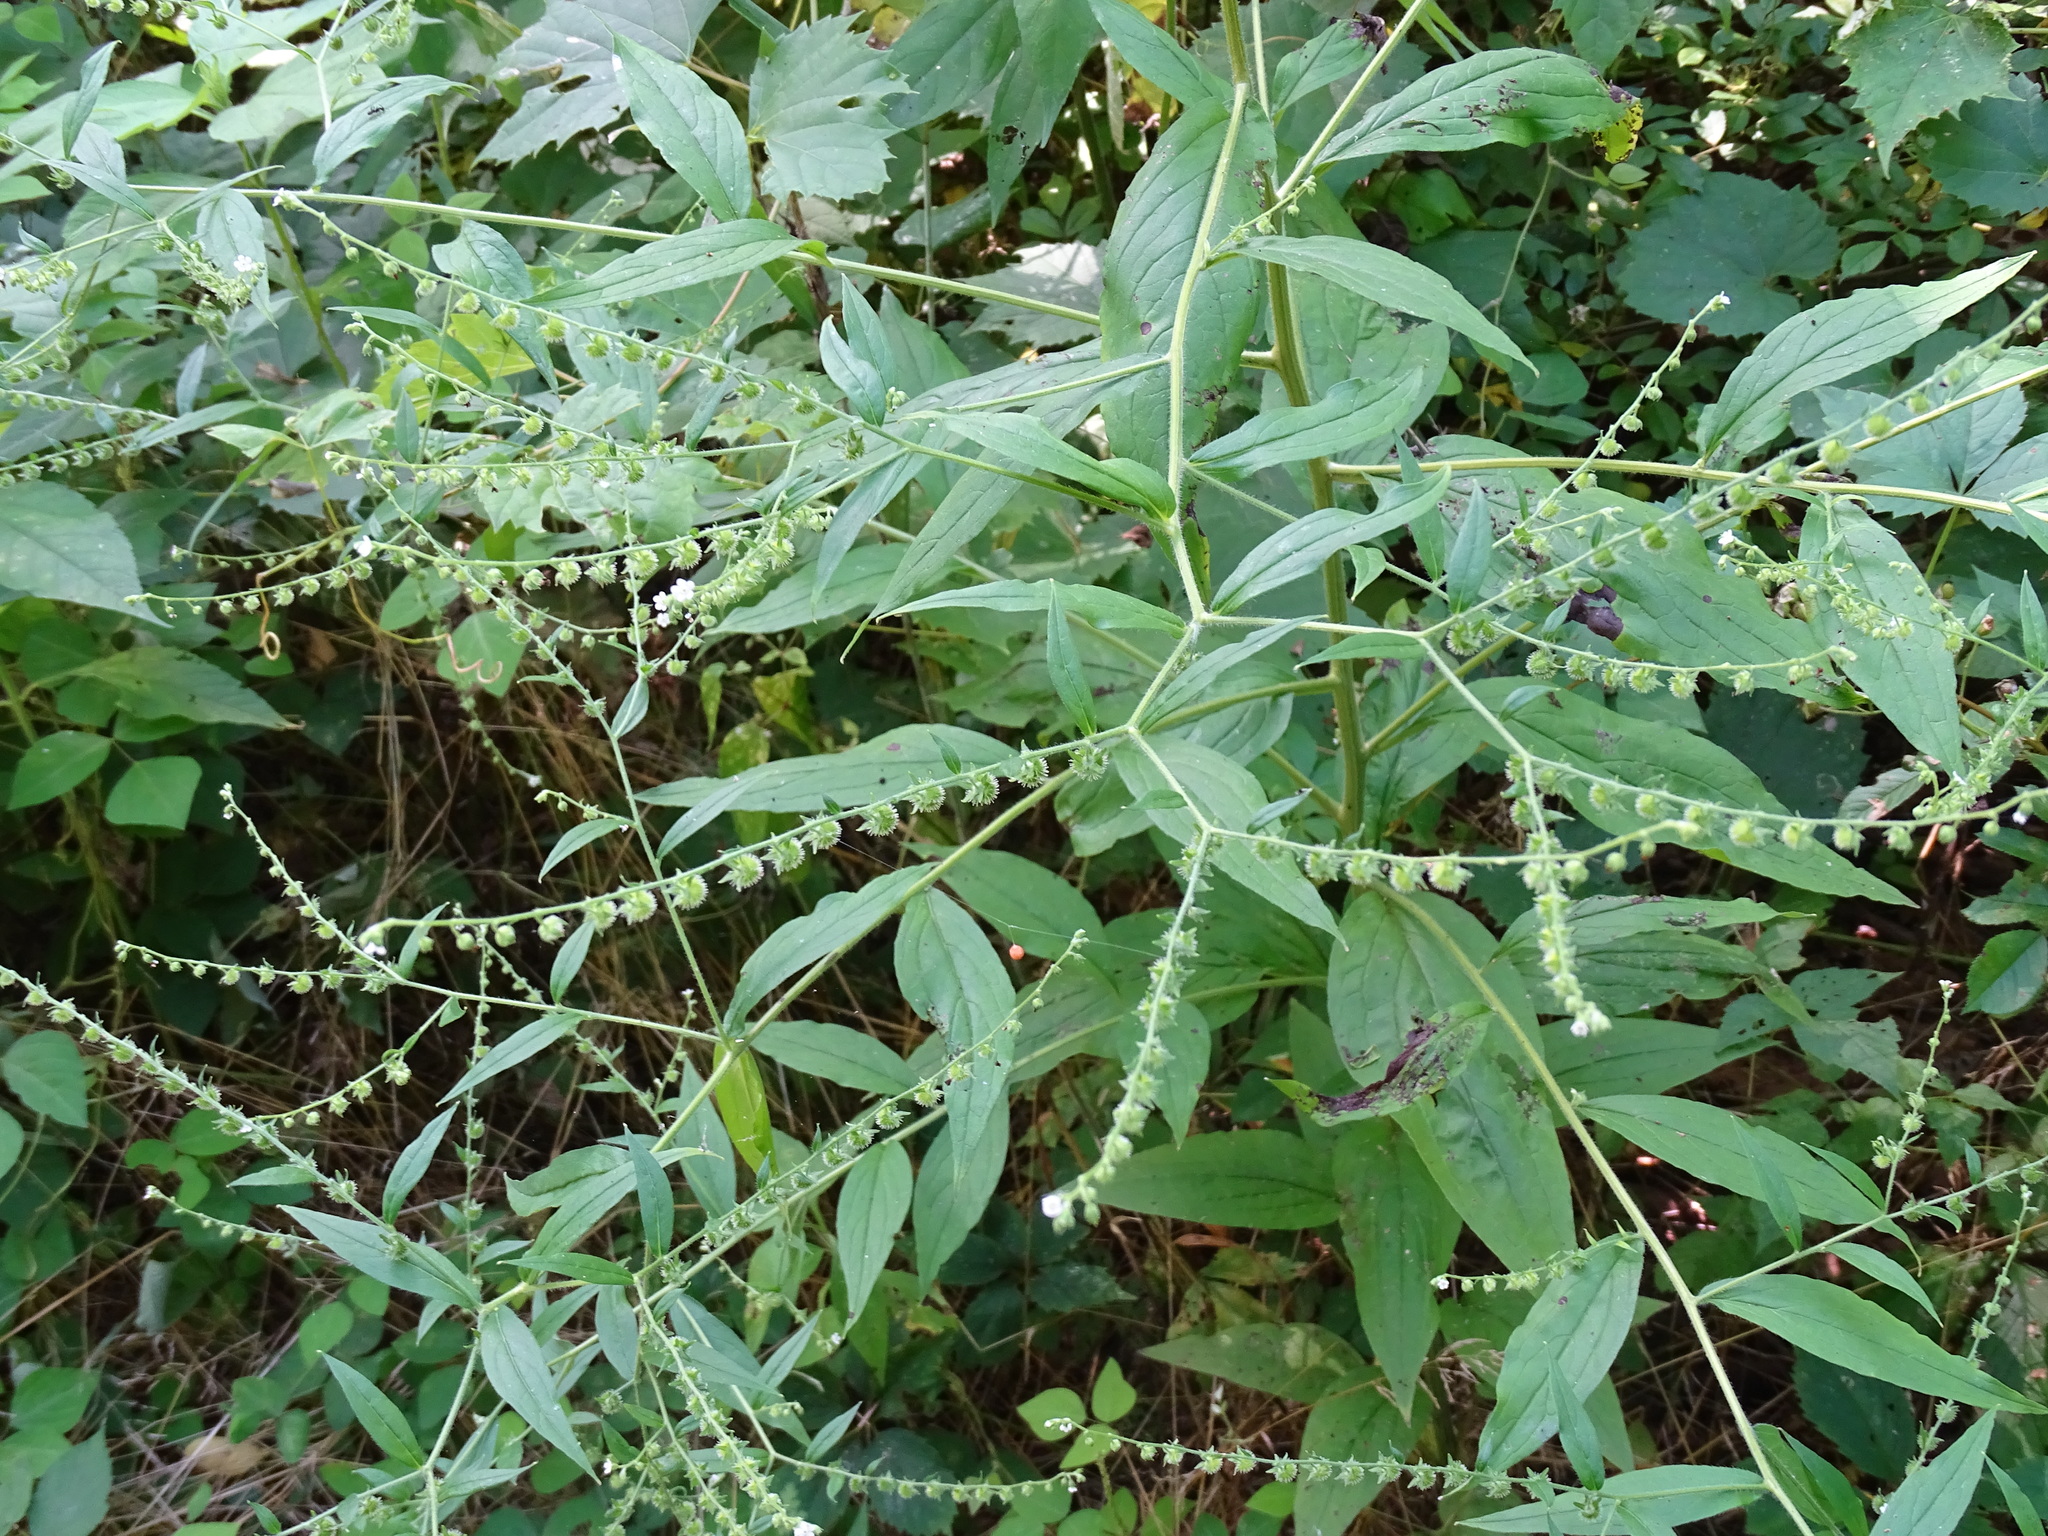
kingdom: Plantae
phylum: Tracheophyta
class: Magnoliopsida
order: Boraginales
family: Boraginaceae
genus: Hackelia
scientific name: Hackelia virginiana
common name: Beggar's-lice
